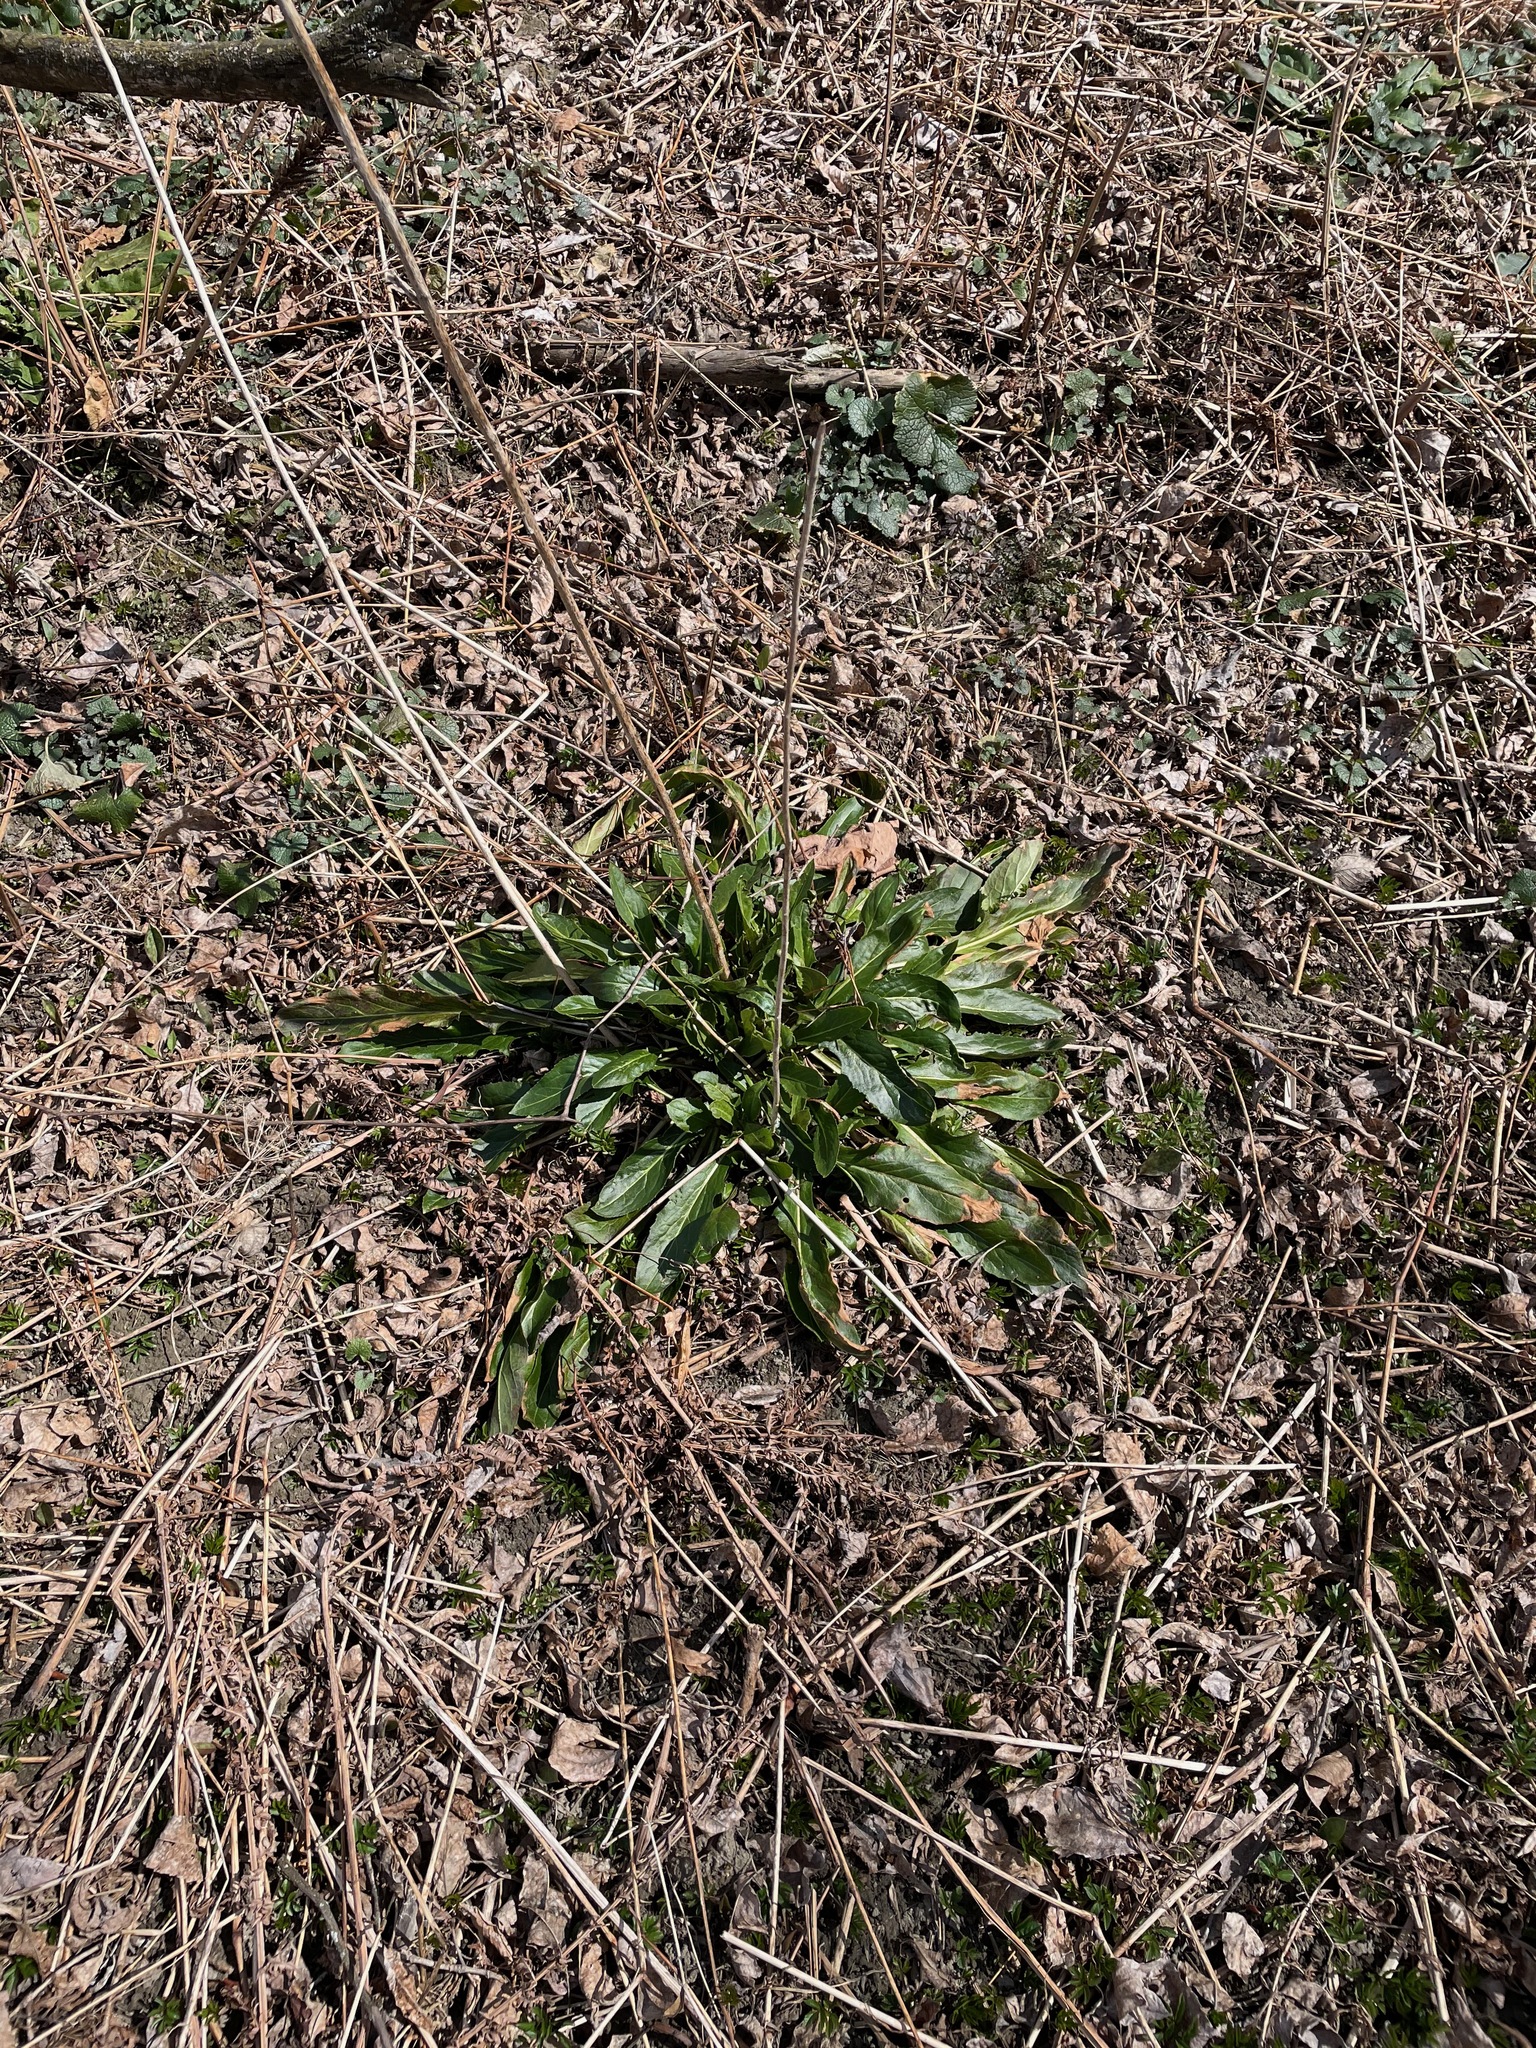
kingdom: Plantae
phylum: Tracheophyta
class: Magnoliopsida
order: Brassicales
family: Brassicaceae
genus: Hesperis
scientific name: Hesperis matronalis
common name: Dame's-violet
